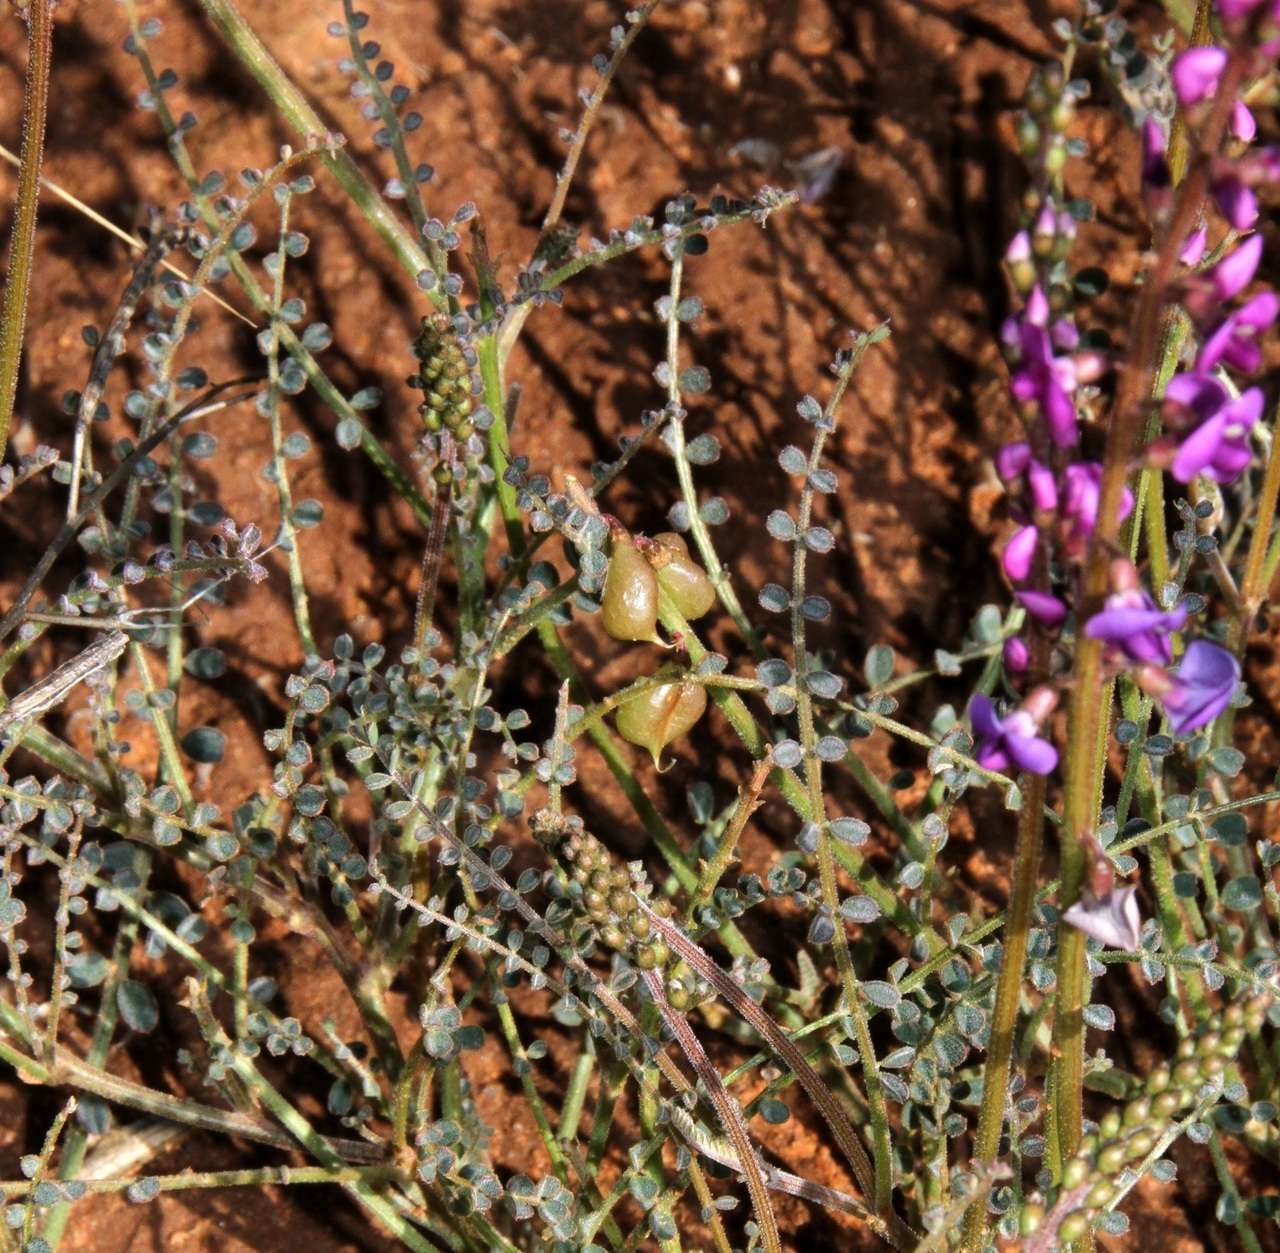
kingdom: Plantae
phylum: Tracheophyta
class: Magnoliopsida
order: Fabales
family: Fabaceae
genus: Swainsona
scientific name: Swainsona microphylla
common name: Small-leaf swainsona-pea
